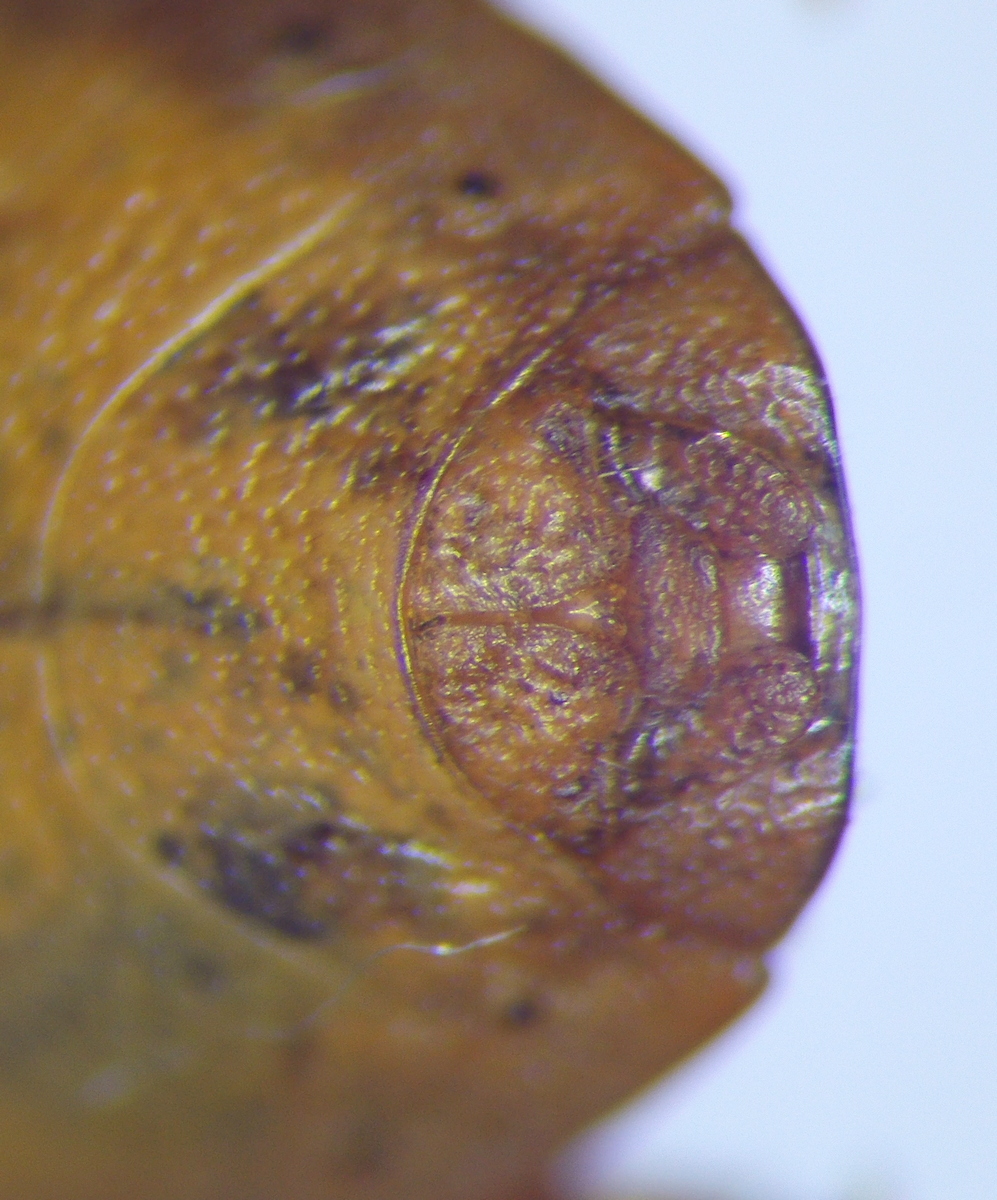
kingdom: Animalia
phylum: Arthropoda
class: Insecta
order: Hemiptera
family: Pentatomidae
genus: Aelia
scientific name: Aelia
